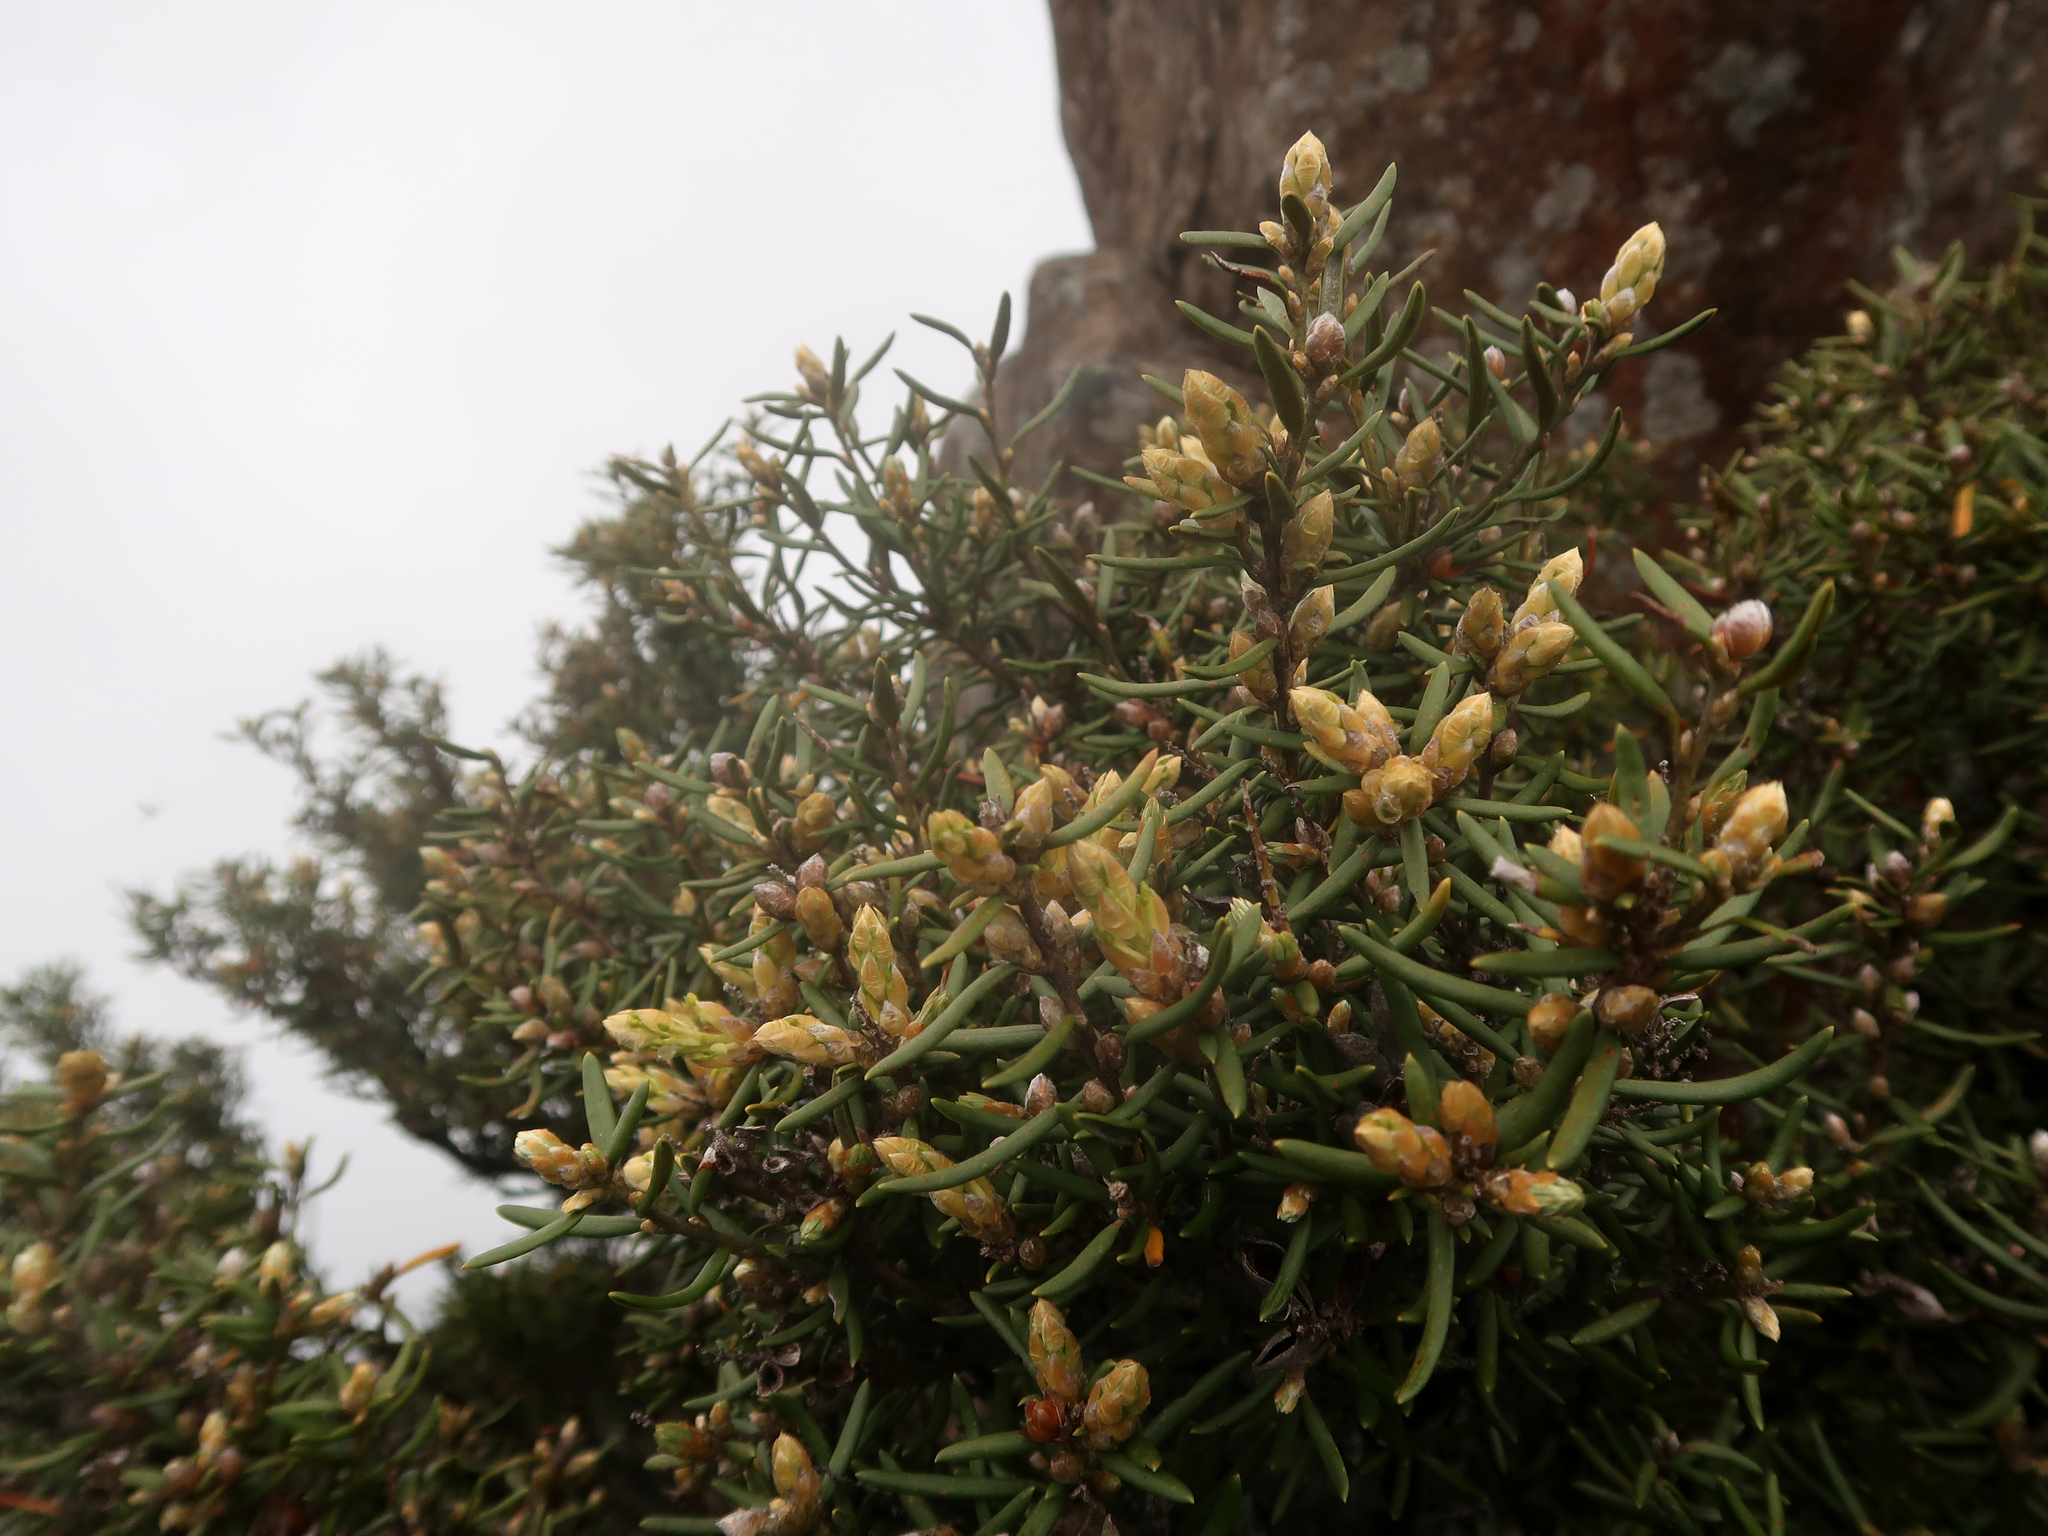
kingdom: Plantae
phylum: Tracheophyta
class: Magnoliopsida
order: Proteales
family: Proteaceae
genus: Orites
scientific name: Orites revolutus
